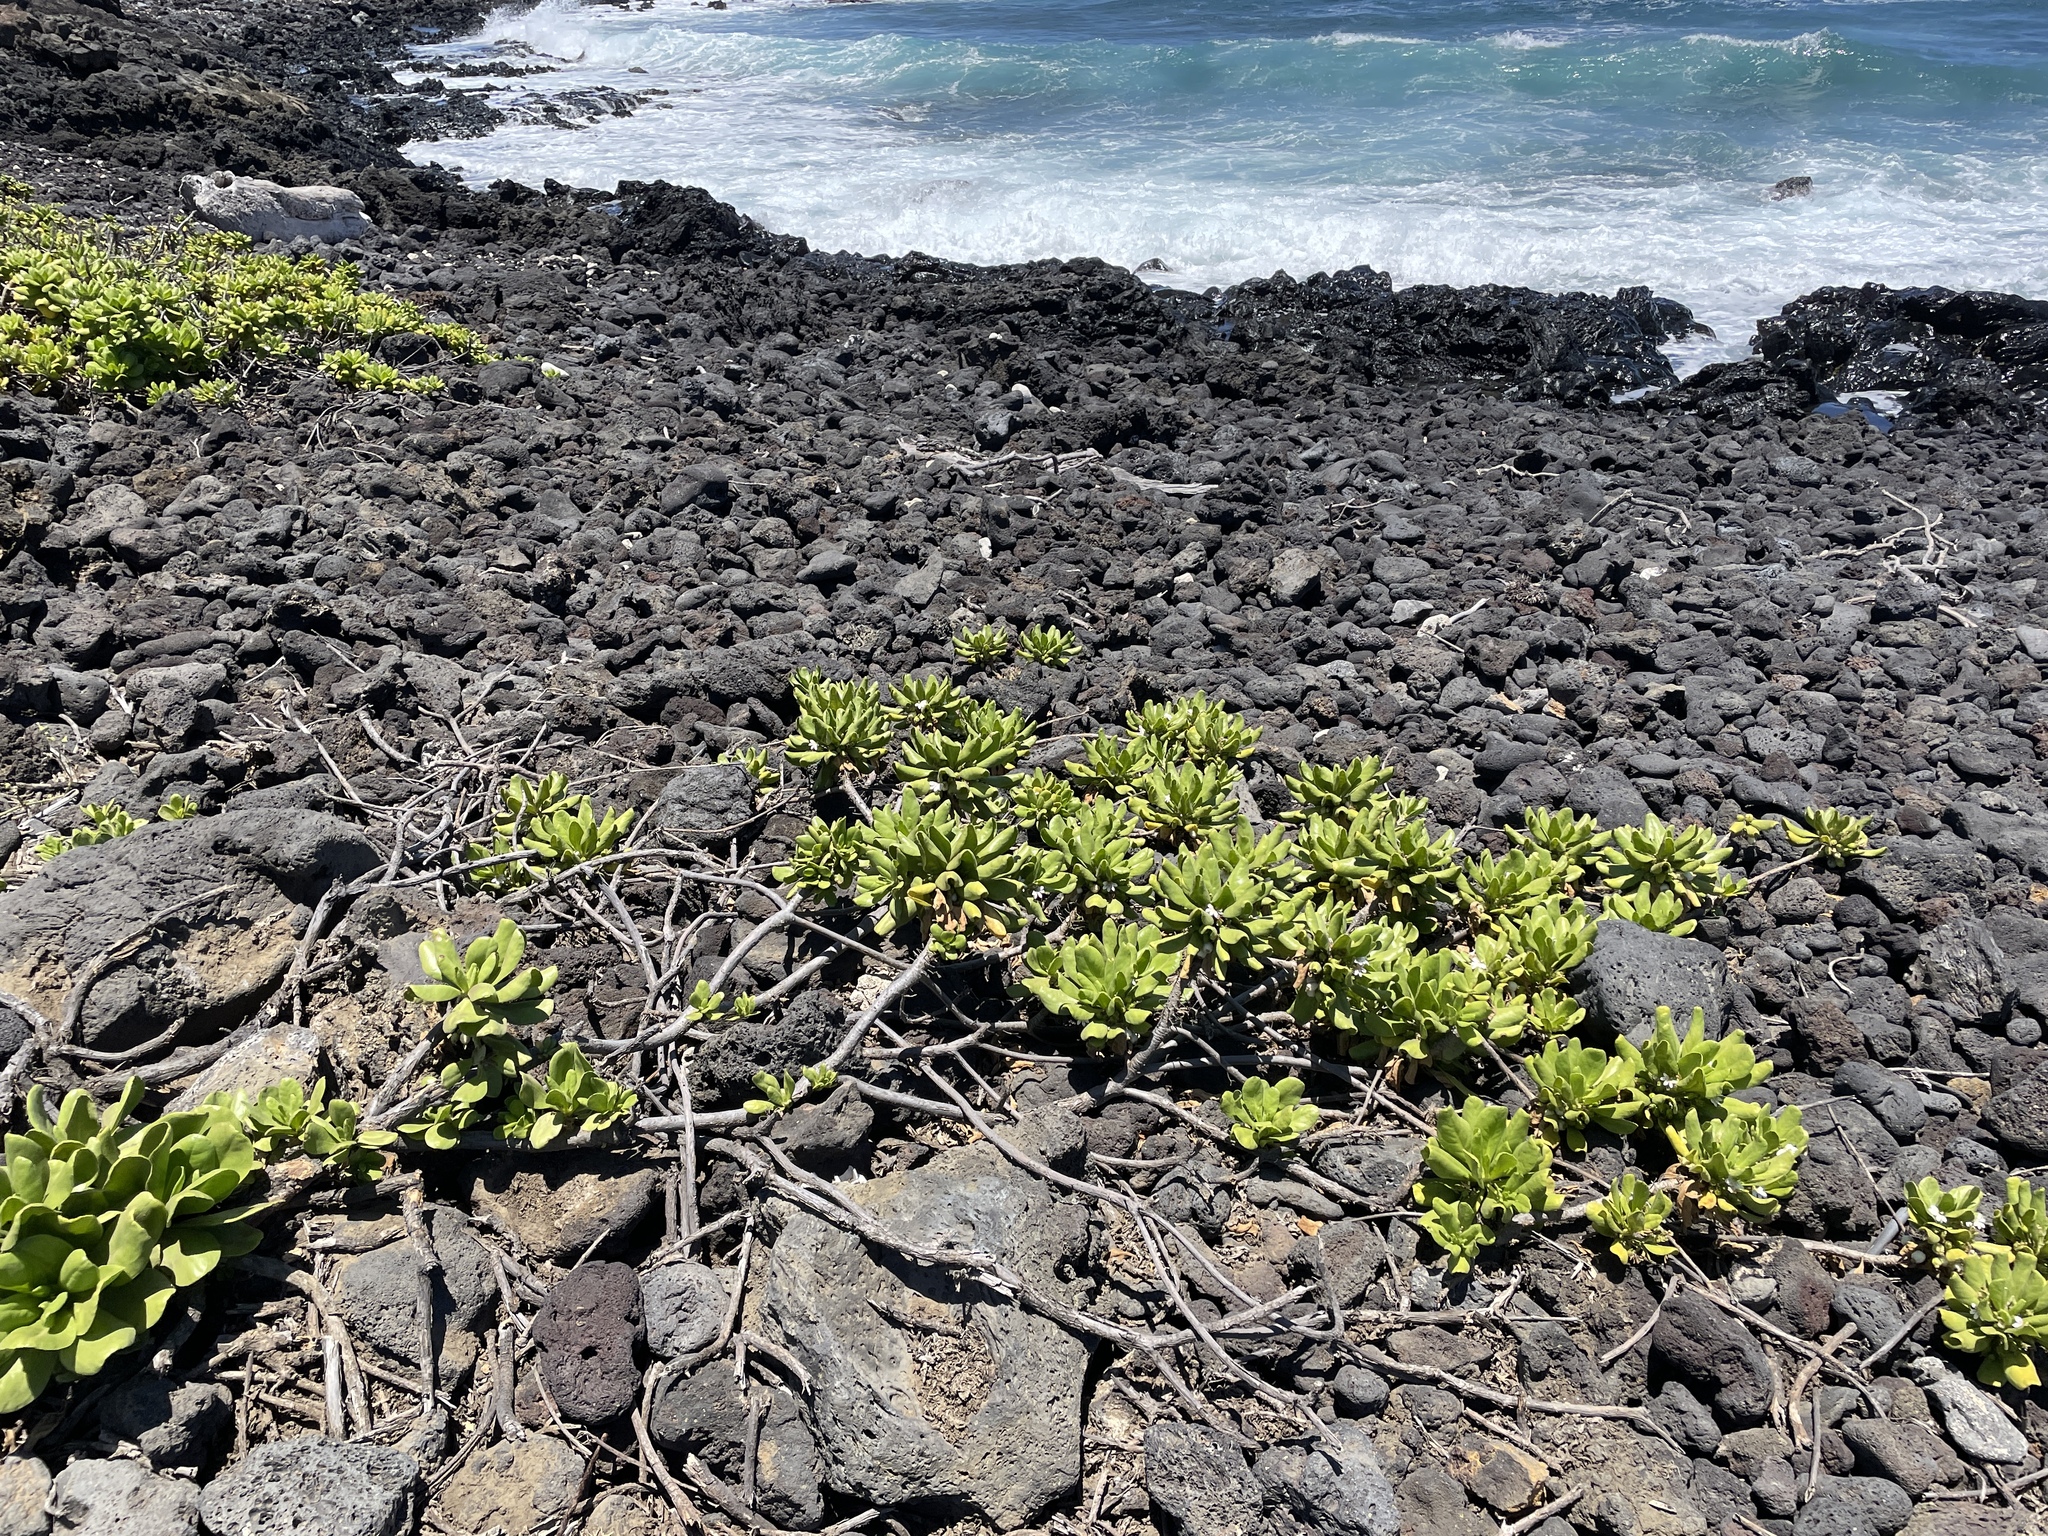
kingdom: Plantae
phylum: Tracheophyta
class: Magnoliopsida
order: Asterales
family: Goodeniaceae
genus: Scaevola
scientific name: Scaevola taccada
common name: Sea lettucetree
